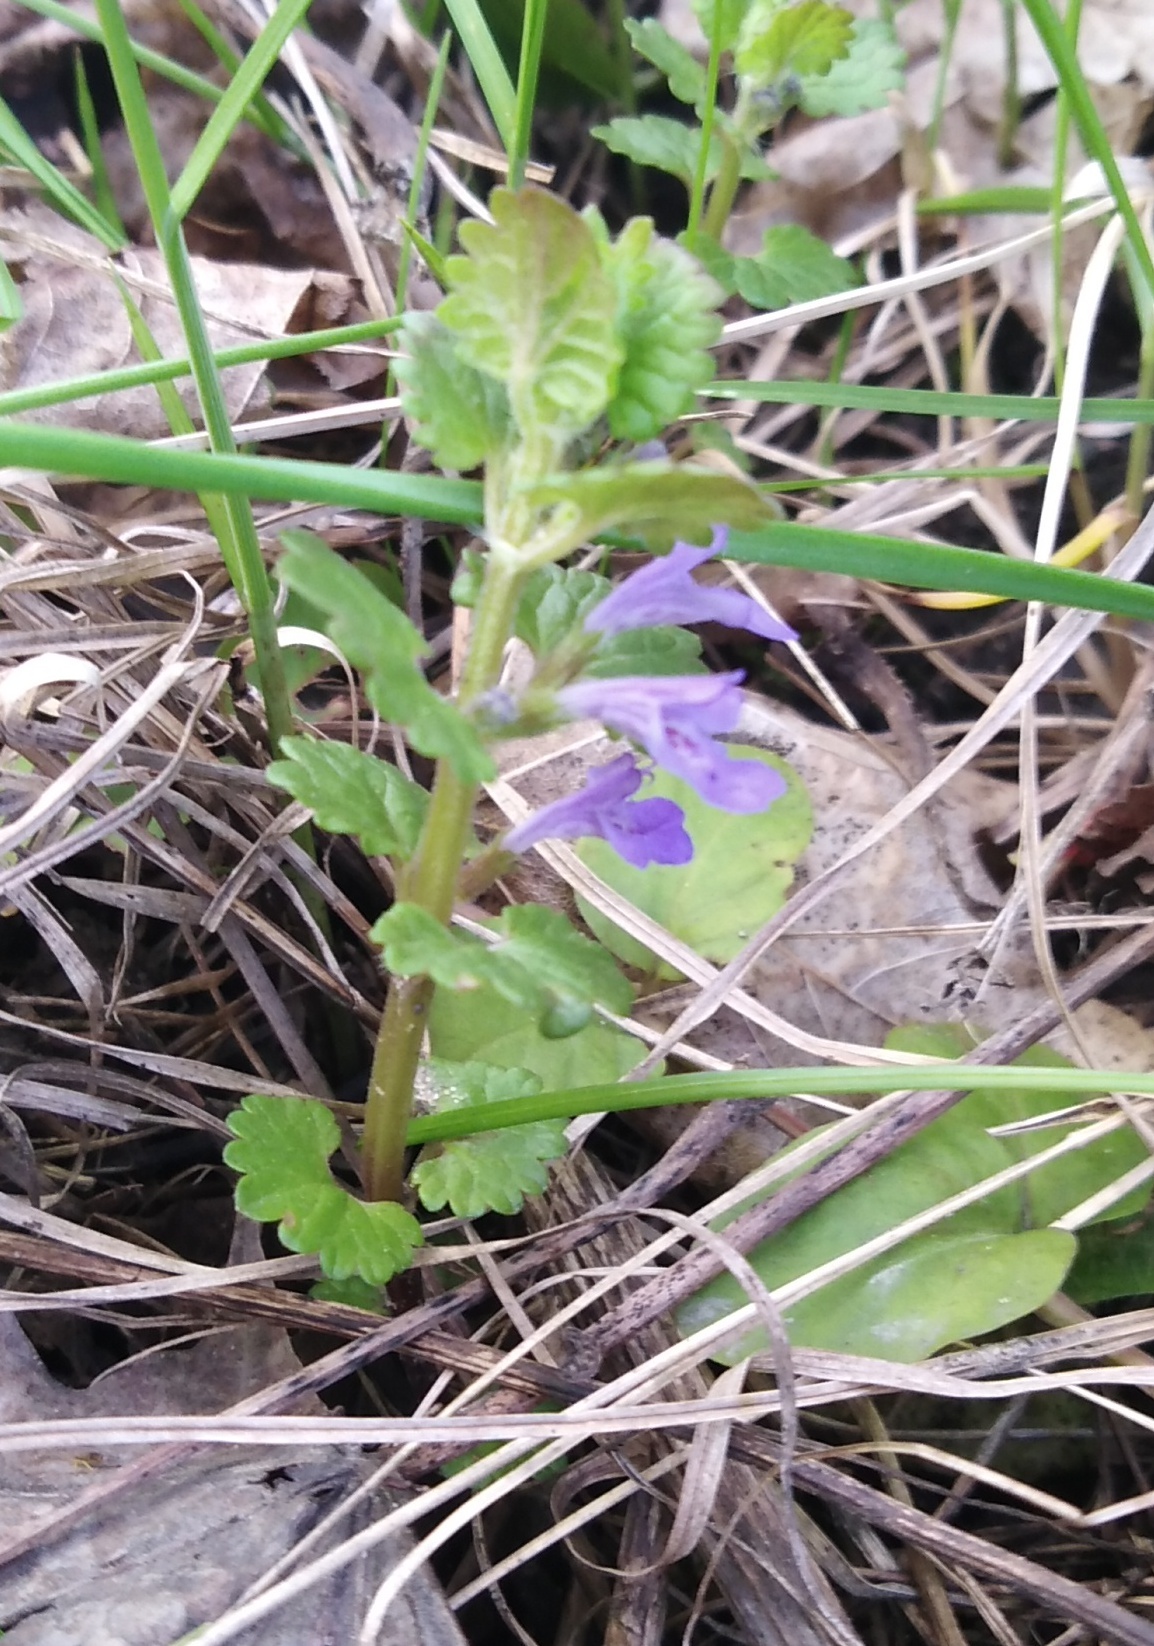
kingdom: Plantae
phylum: Tracheophyta
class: Magnoliopsida
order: Lamiales
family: Lamiaceae
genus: Glechoma
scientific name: Glechoma hederacea
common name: Ground ivy
